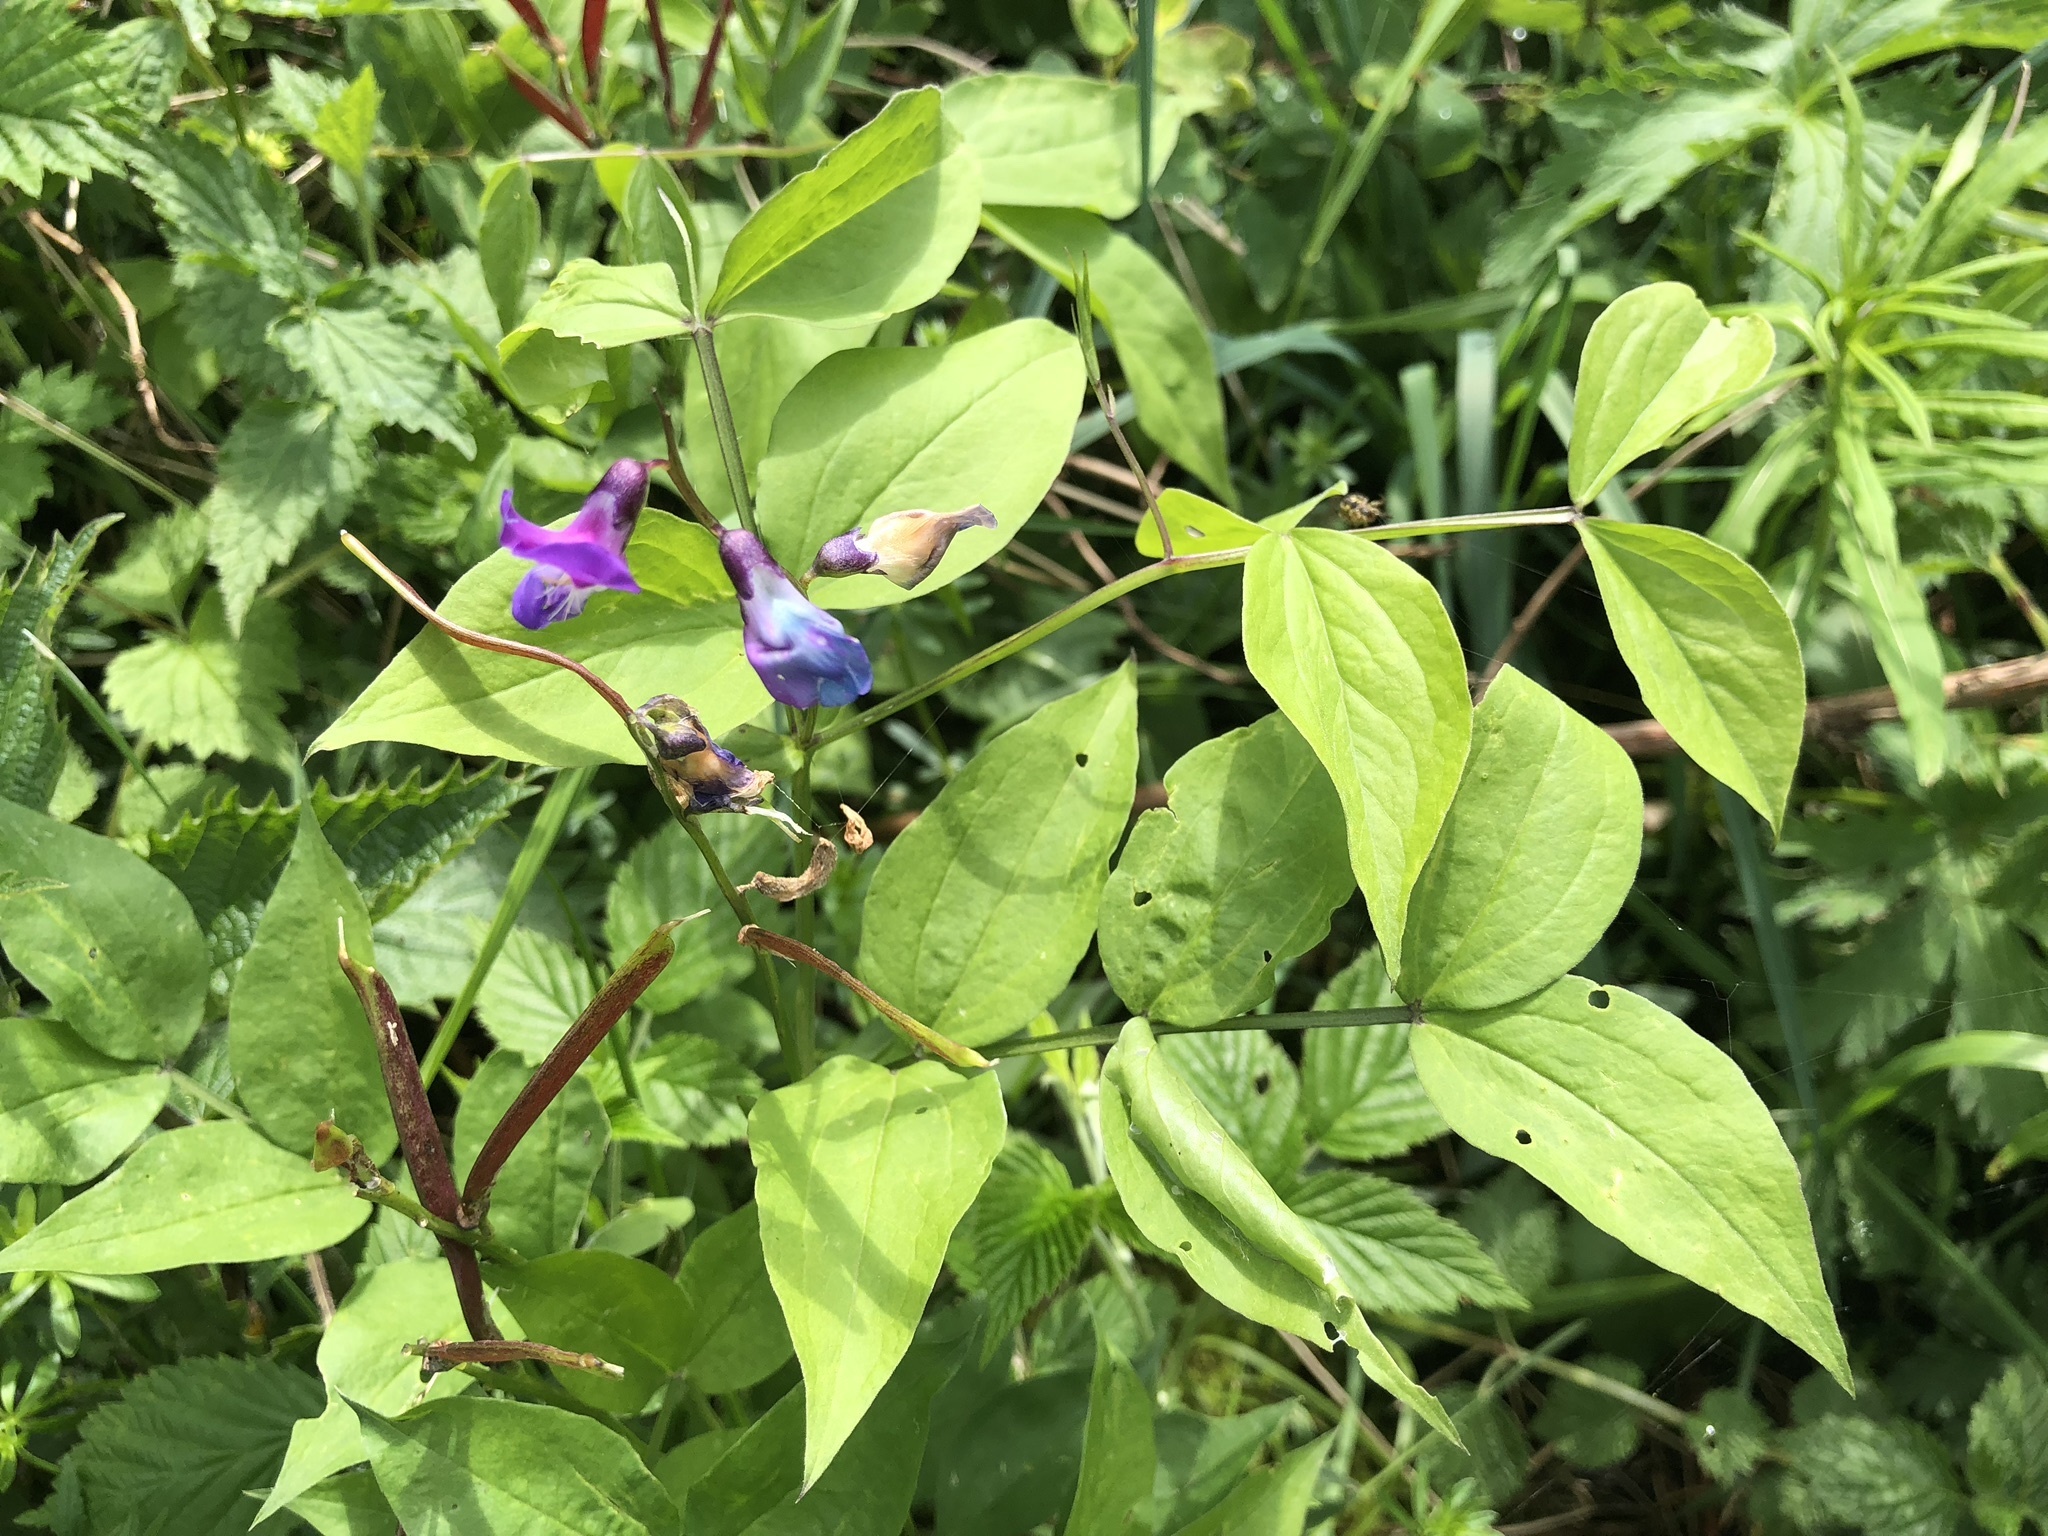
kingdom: Plantae
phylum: Tracheophyta
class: Magnoliopsida
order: Fabales
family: Fabaceae
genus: Lathyrus
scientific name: Lathyrus vernus
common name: Spring pea
